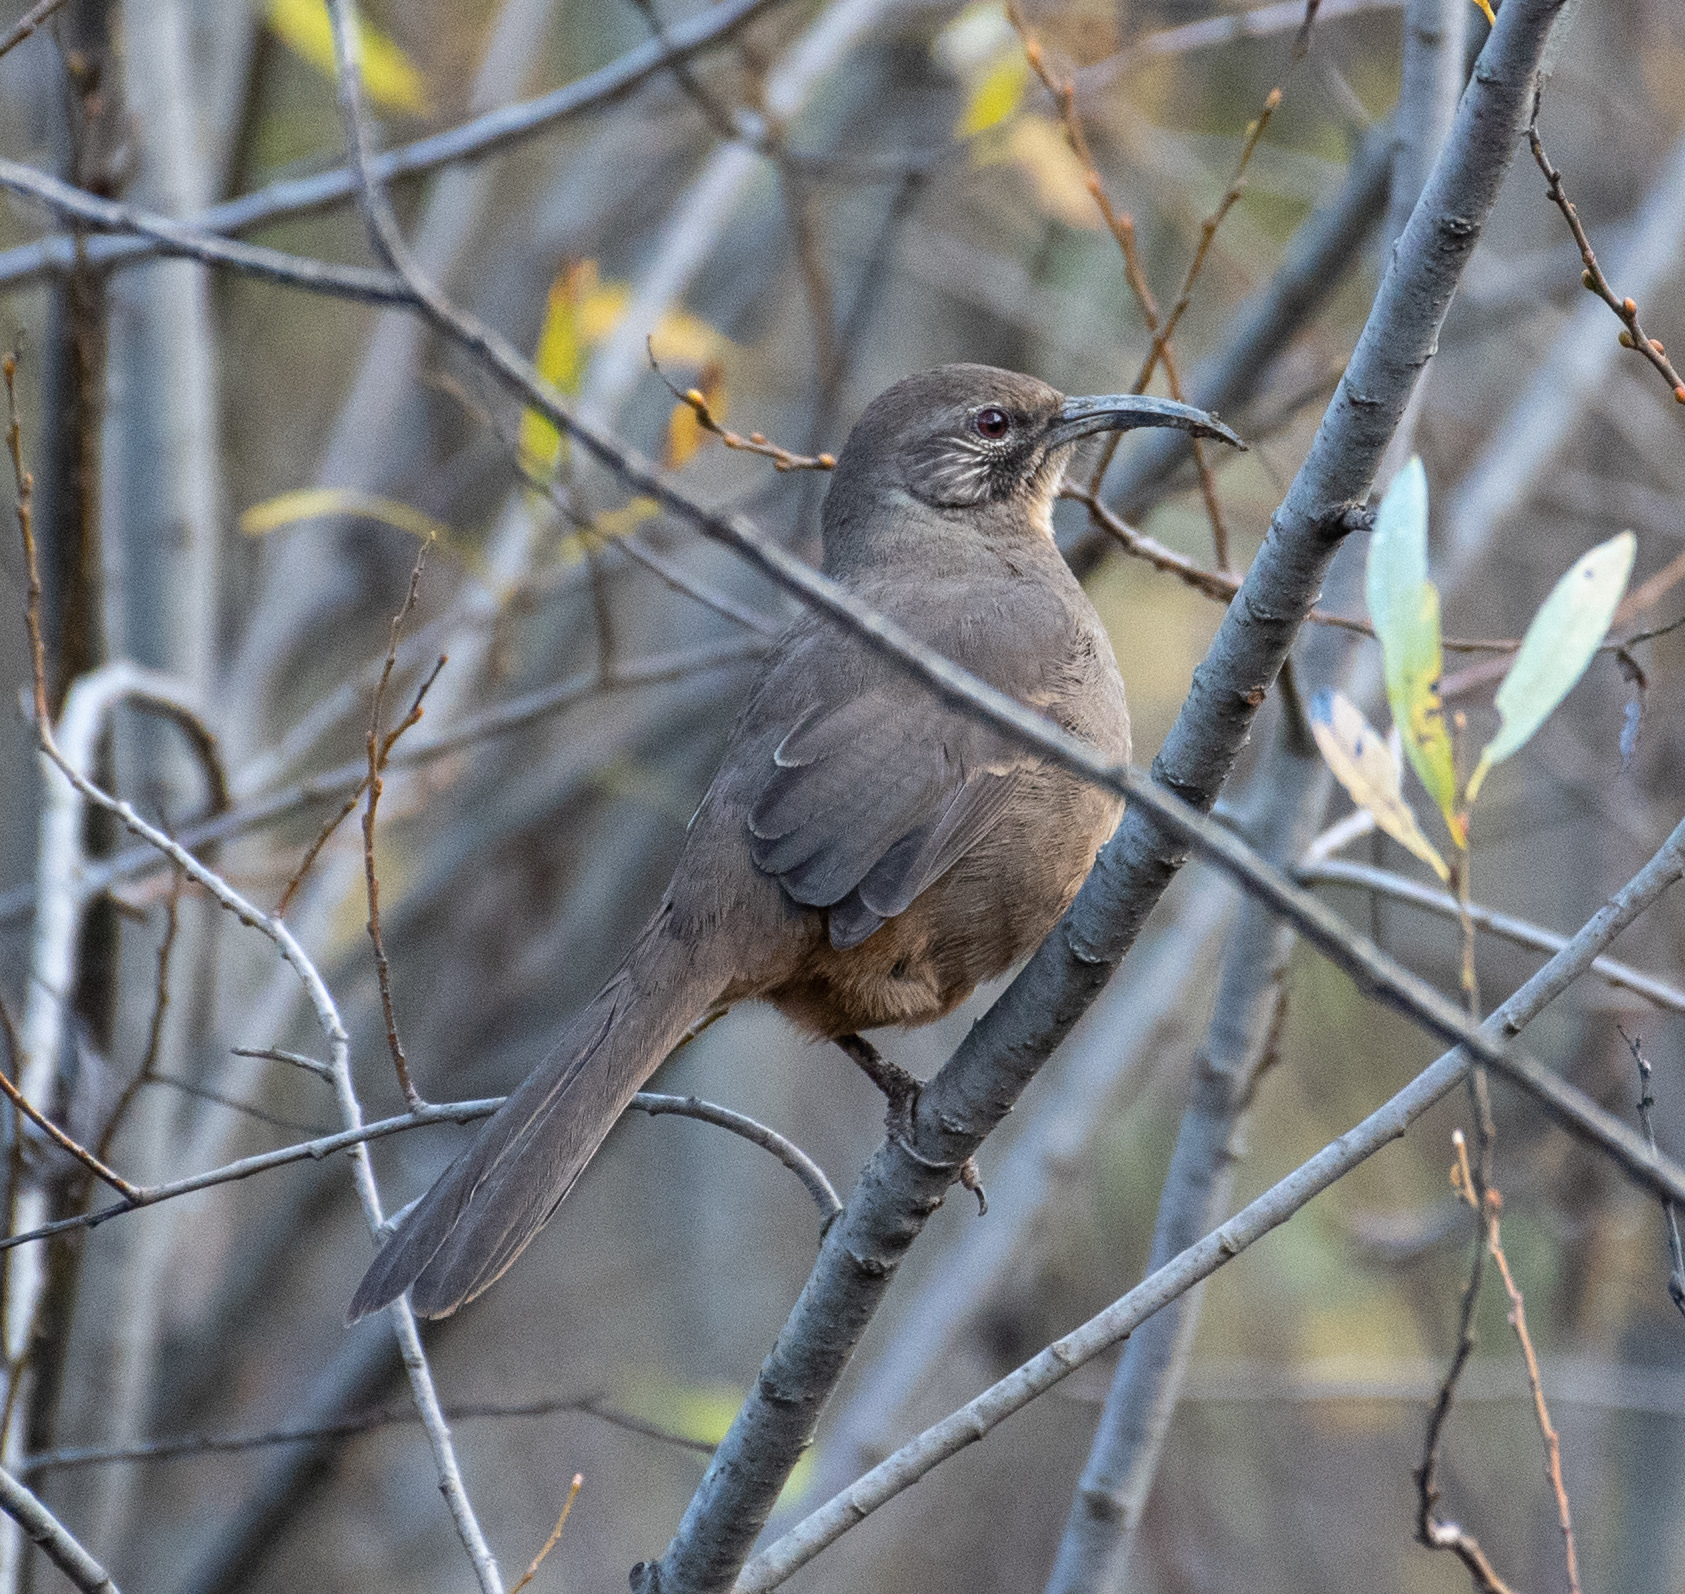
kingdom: Animalia
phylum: Chordata
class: Aves
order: Passeriformes
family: Mimidae
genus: Toxostoma
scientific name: Toxostoma redivivum
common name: California thrasher
